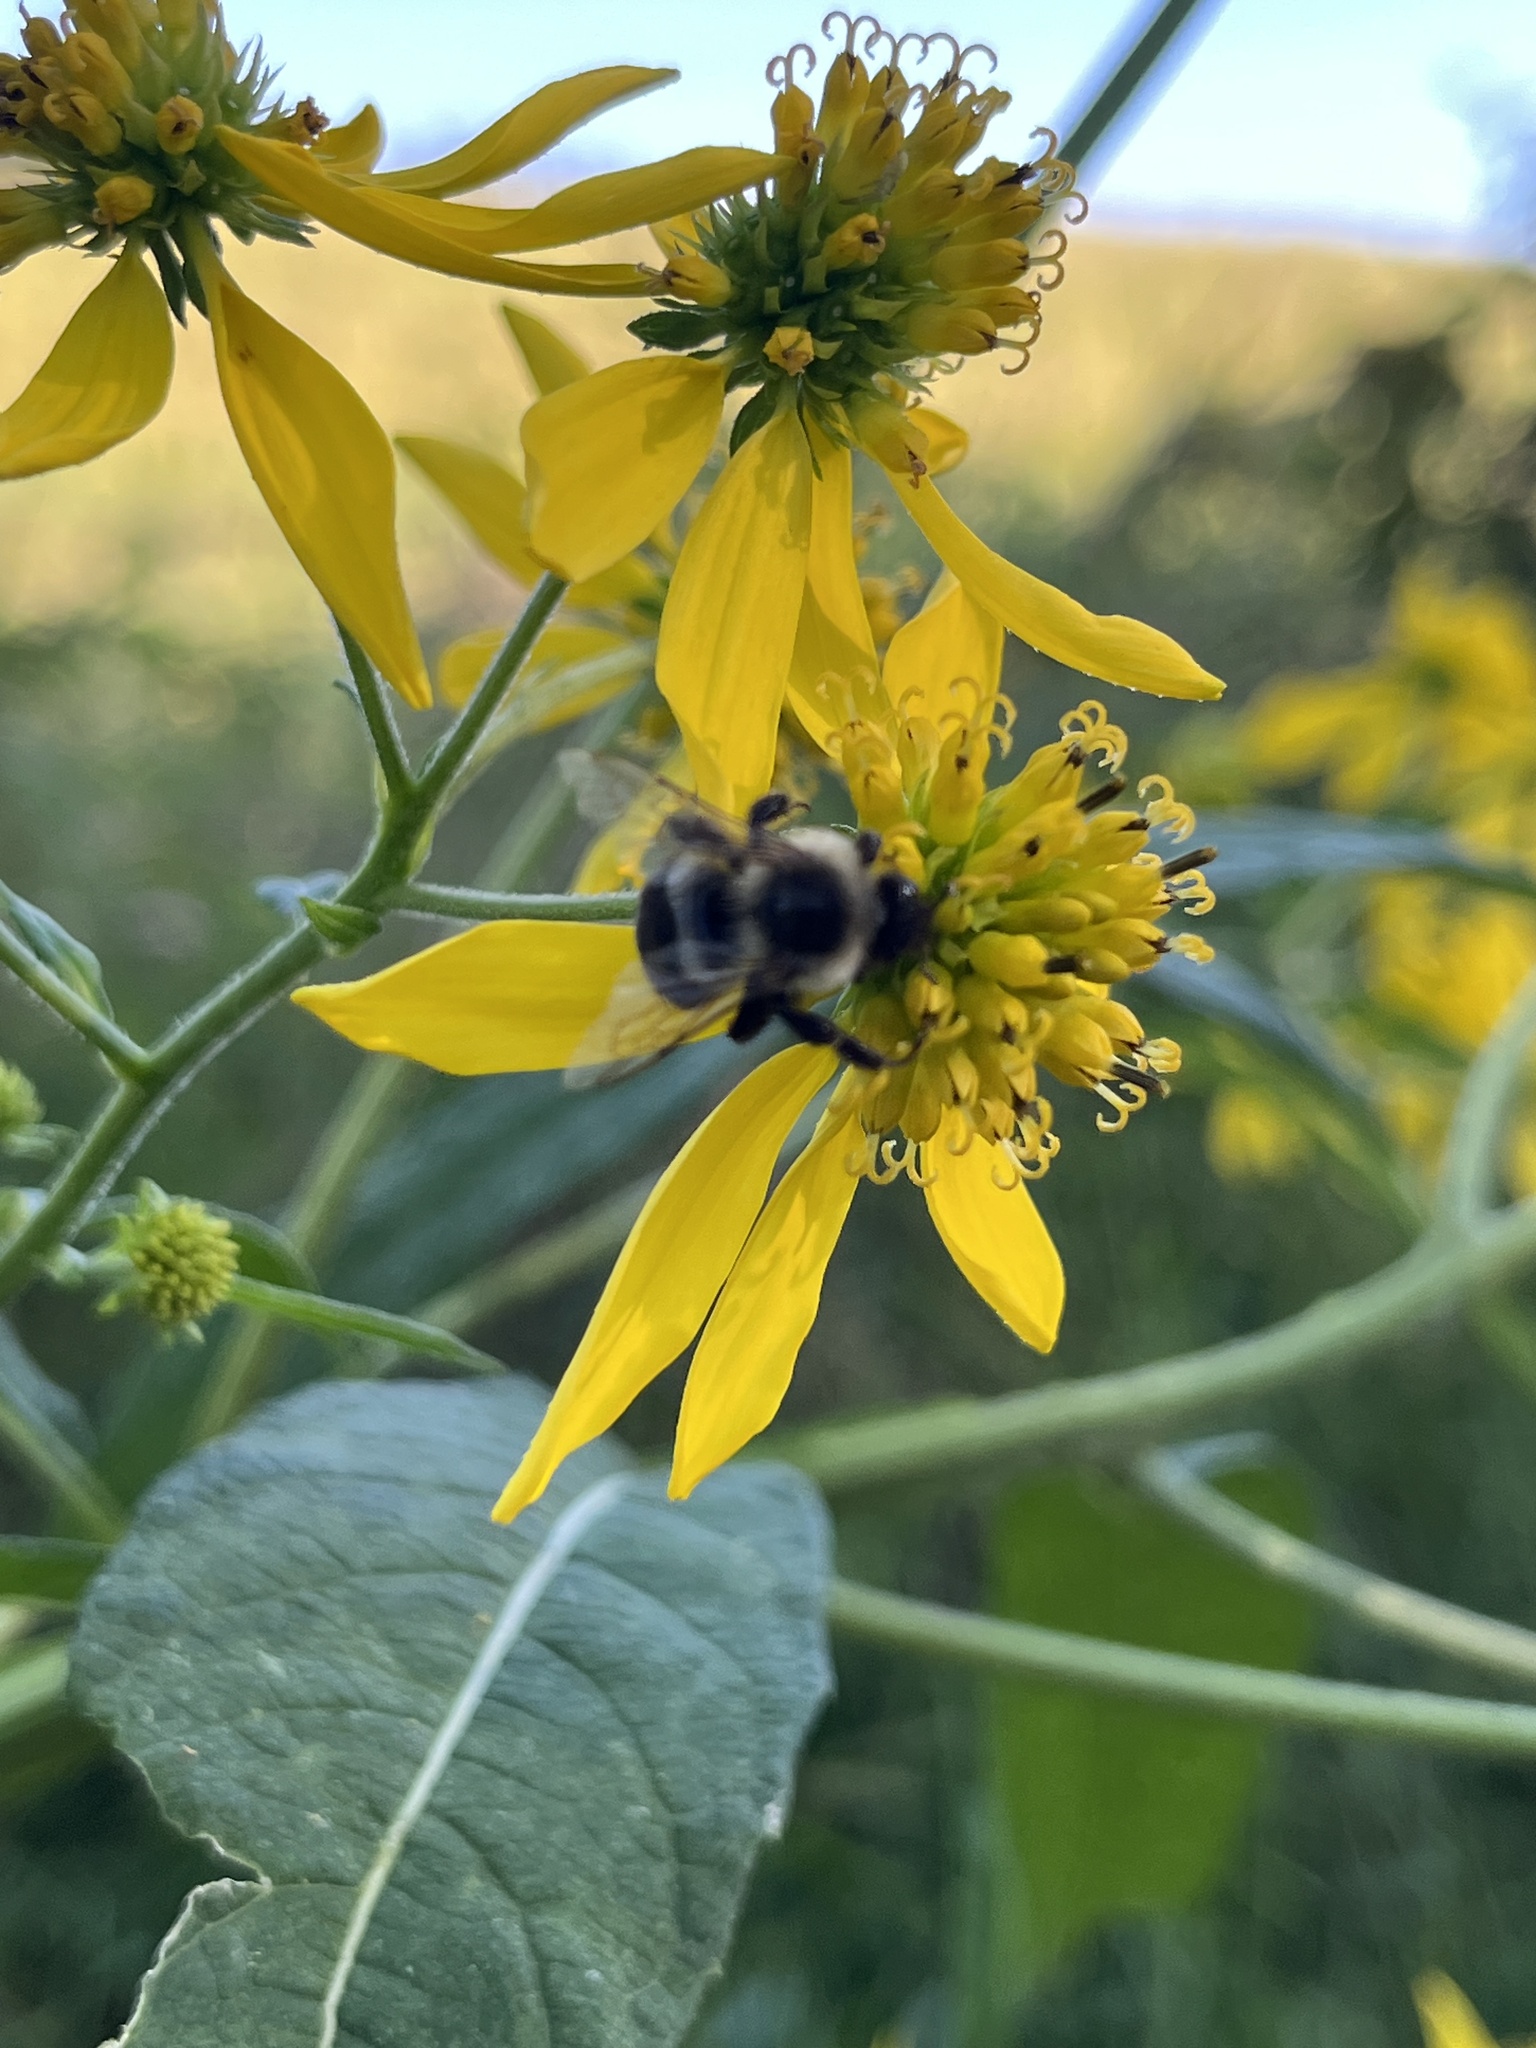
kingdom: Animalia
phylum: Arthropoda
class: Insecta
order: Hymenoptera
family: Apidae
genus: Bombus
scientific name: Bombus impatiens
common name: Common eastern bumble bee
